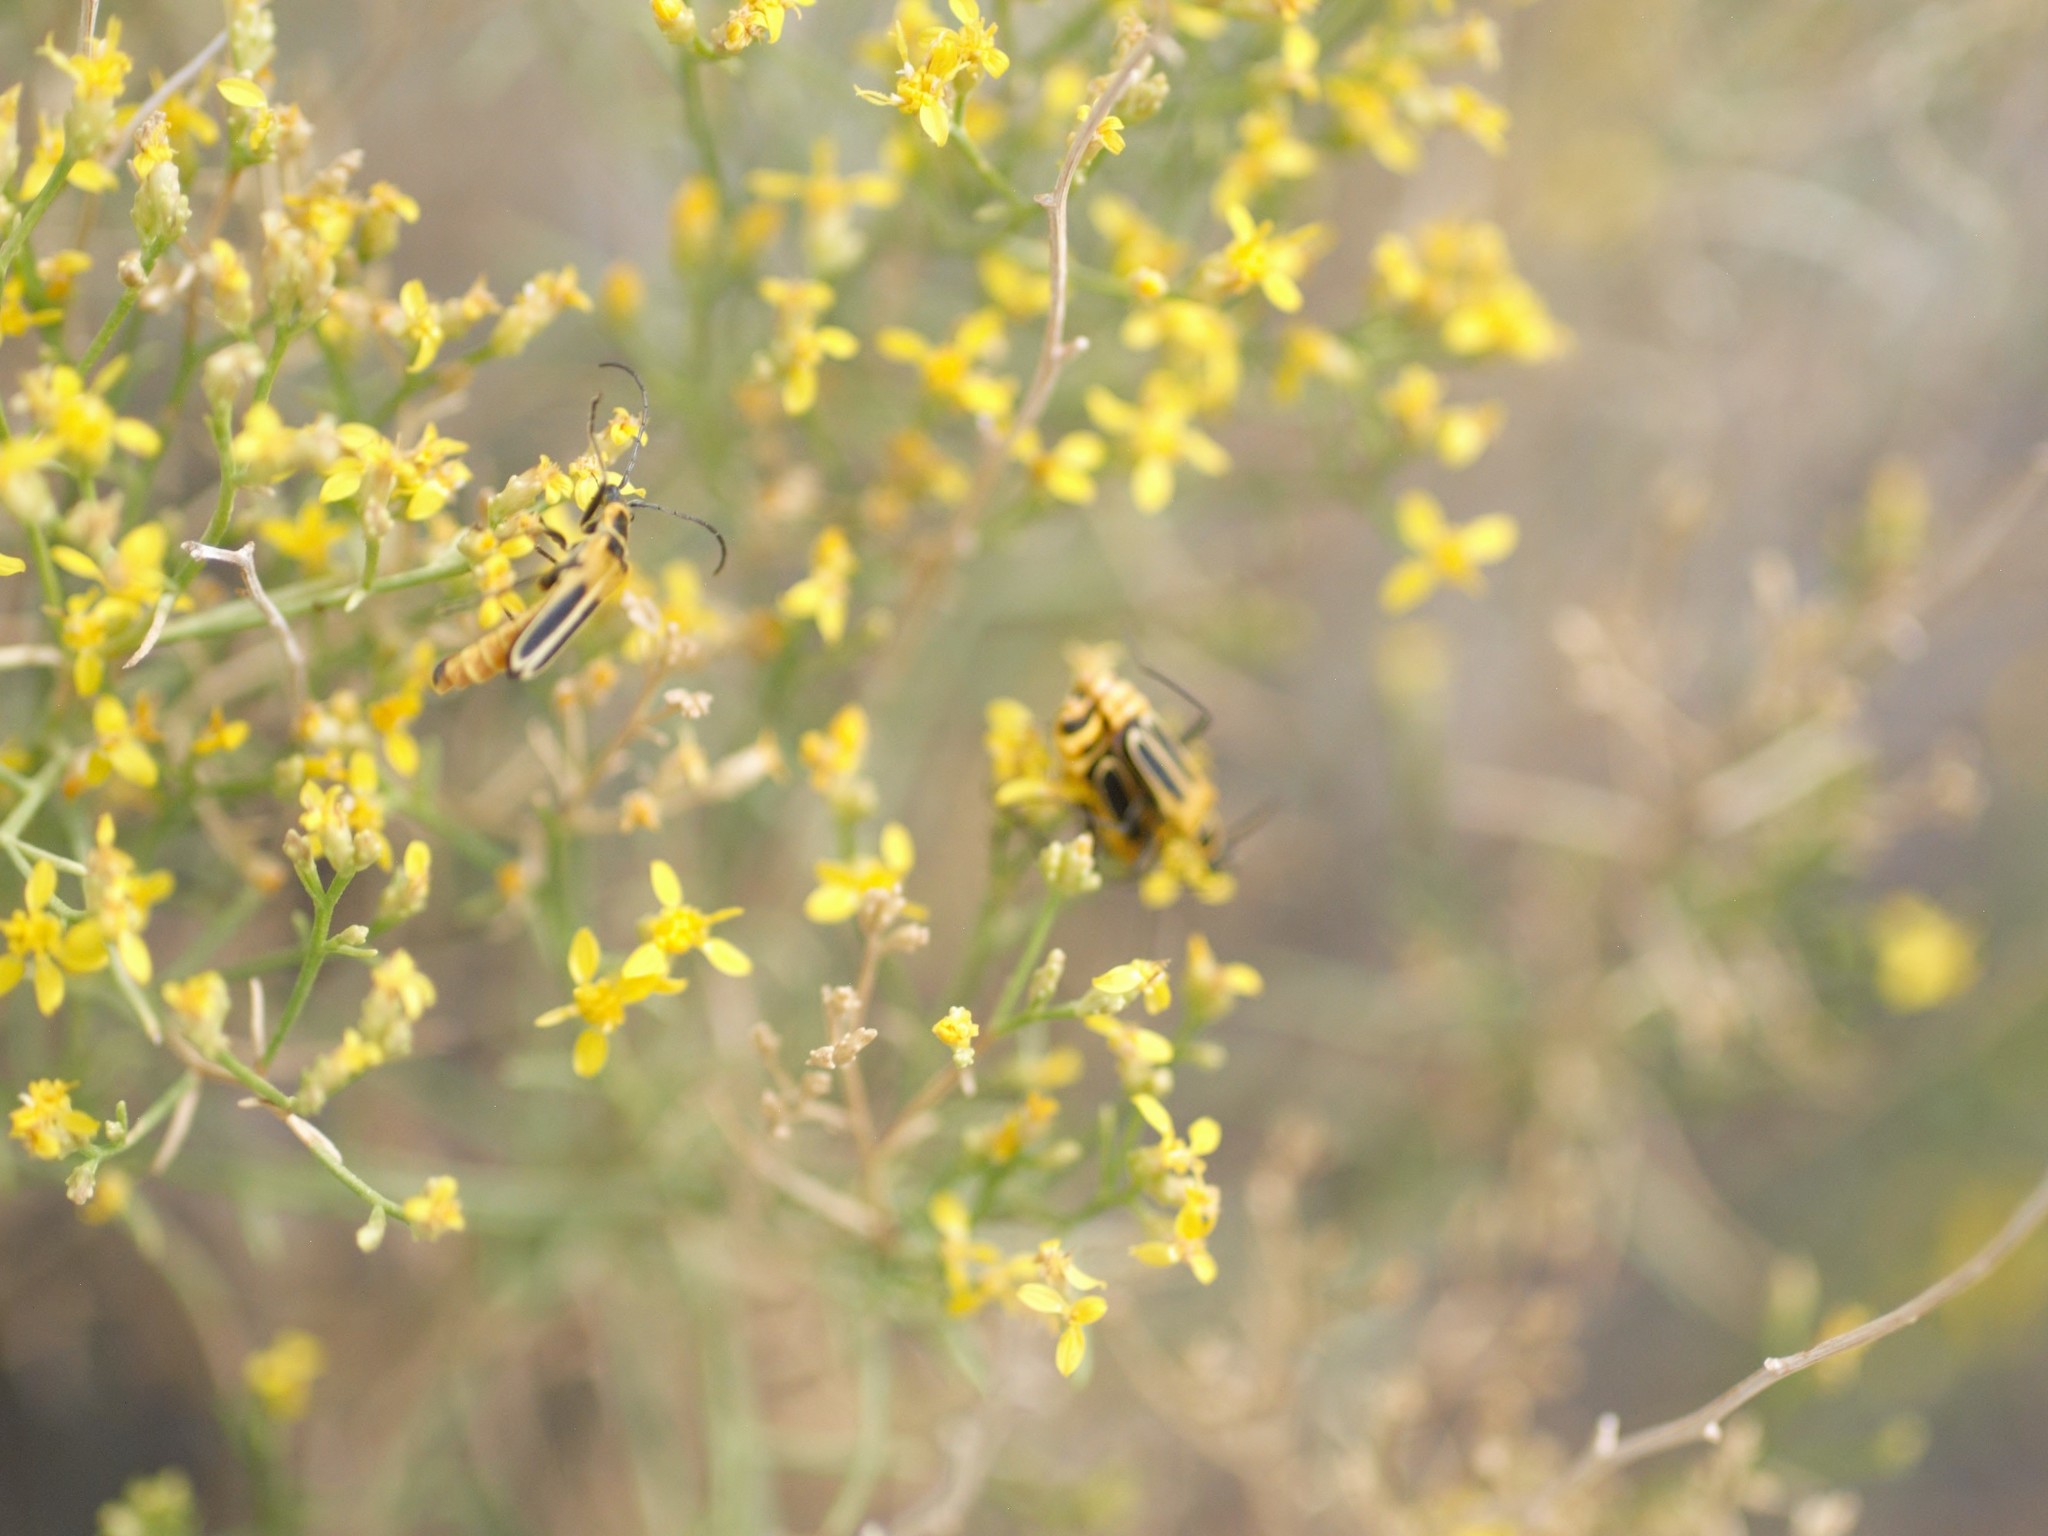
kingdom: Animalia
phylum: Arthropoda
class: Insecta
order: Coleoptera
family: Cantharidae
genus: Chauliognathus
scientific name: Chauliognathus lewisi
